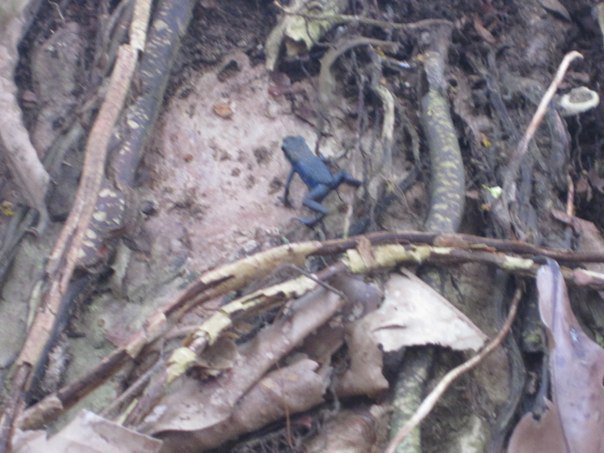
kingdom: Animalia
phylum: Chordata
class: Amphibia
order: Anura
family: Dendrobatidae
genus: Oophaga
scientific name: Oophaga pumilio
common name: Flaming poison frog
